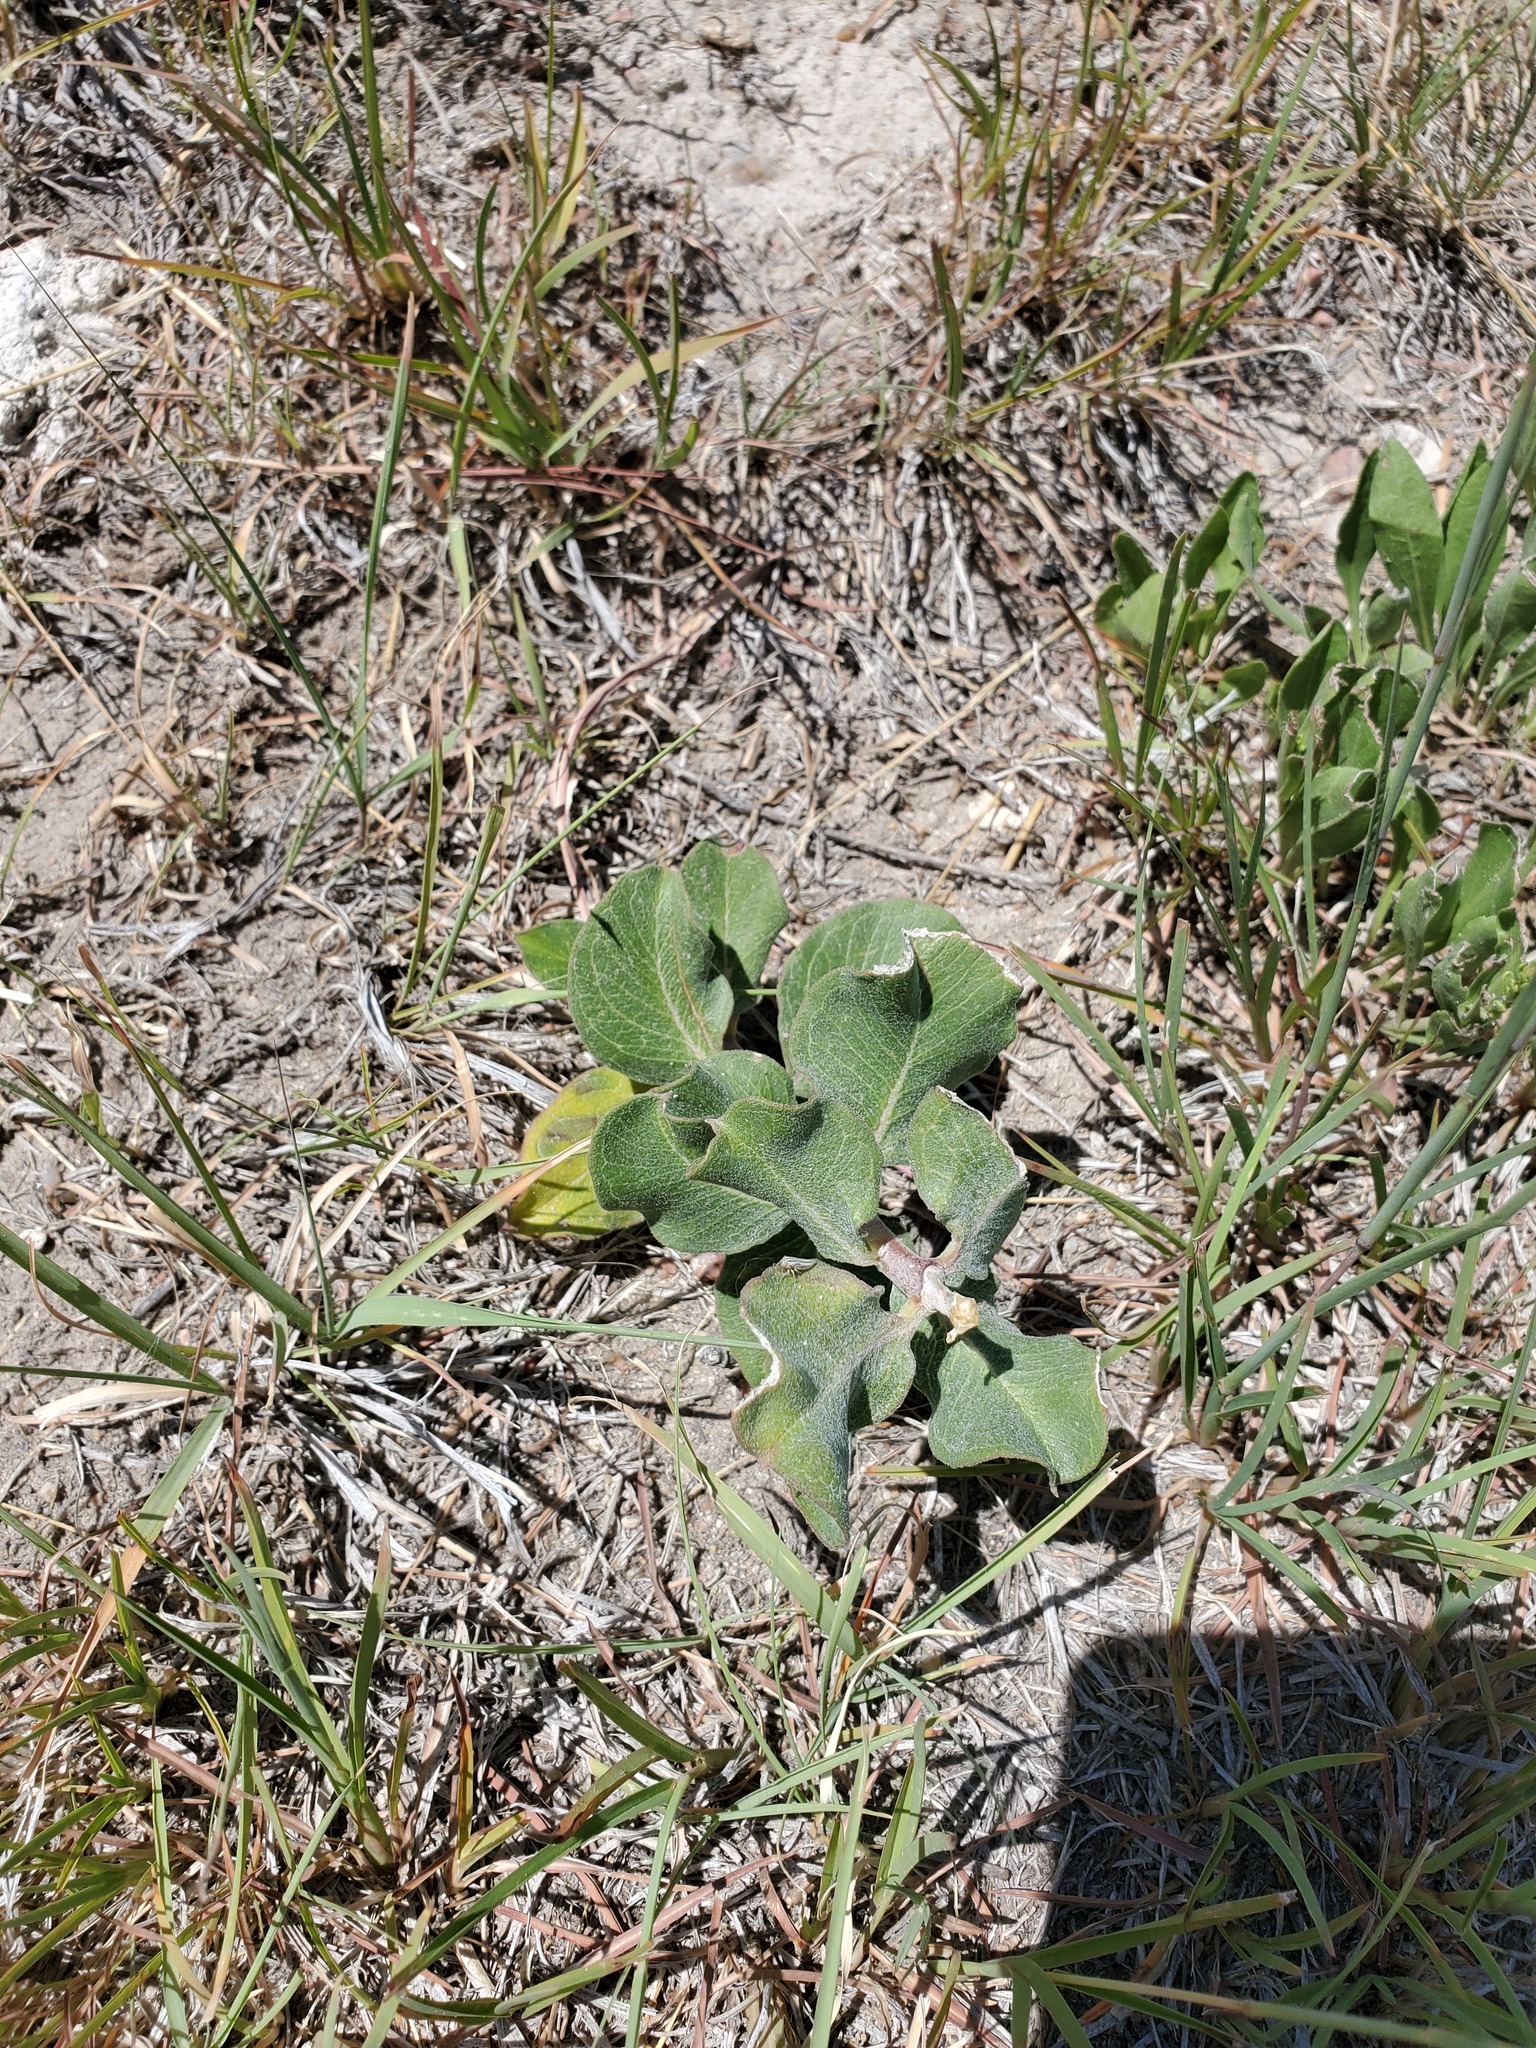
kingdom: Plantae
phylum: Tracheophyta
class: Magnoliopsida
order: Gentianales
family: Apocynaceae
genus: Asclepias
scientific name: Asclepias arenaria
